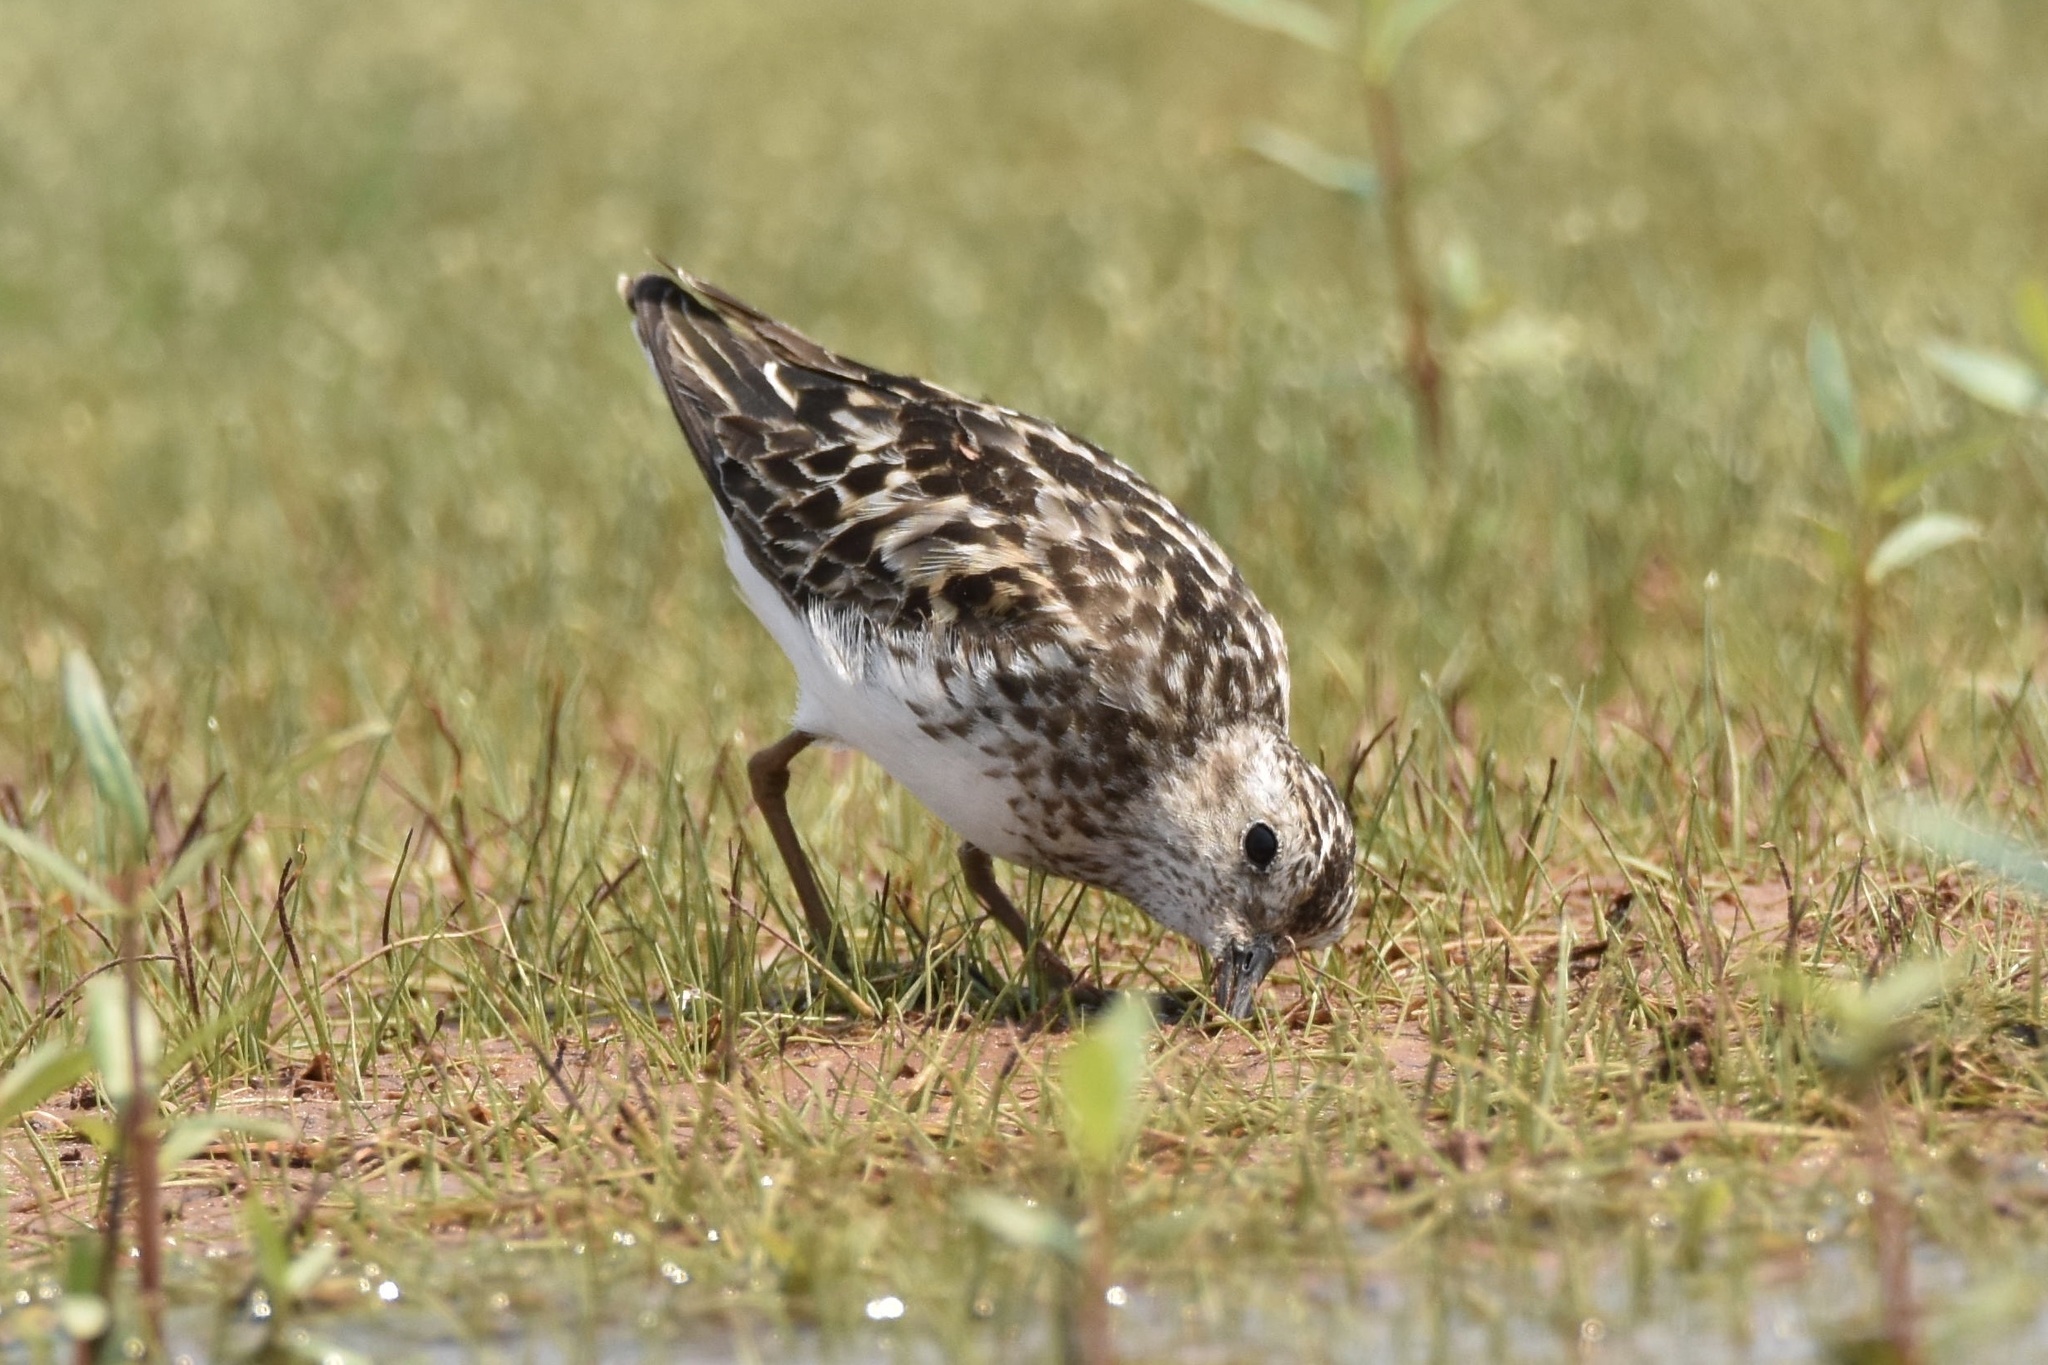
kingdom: Animalia
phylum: Chordata
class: Aves
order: Charadriiformes
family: Scolopacidae
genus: Calidris
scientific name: Calidris minutilla
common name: Least sandpiper
